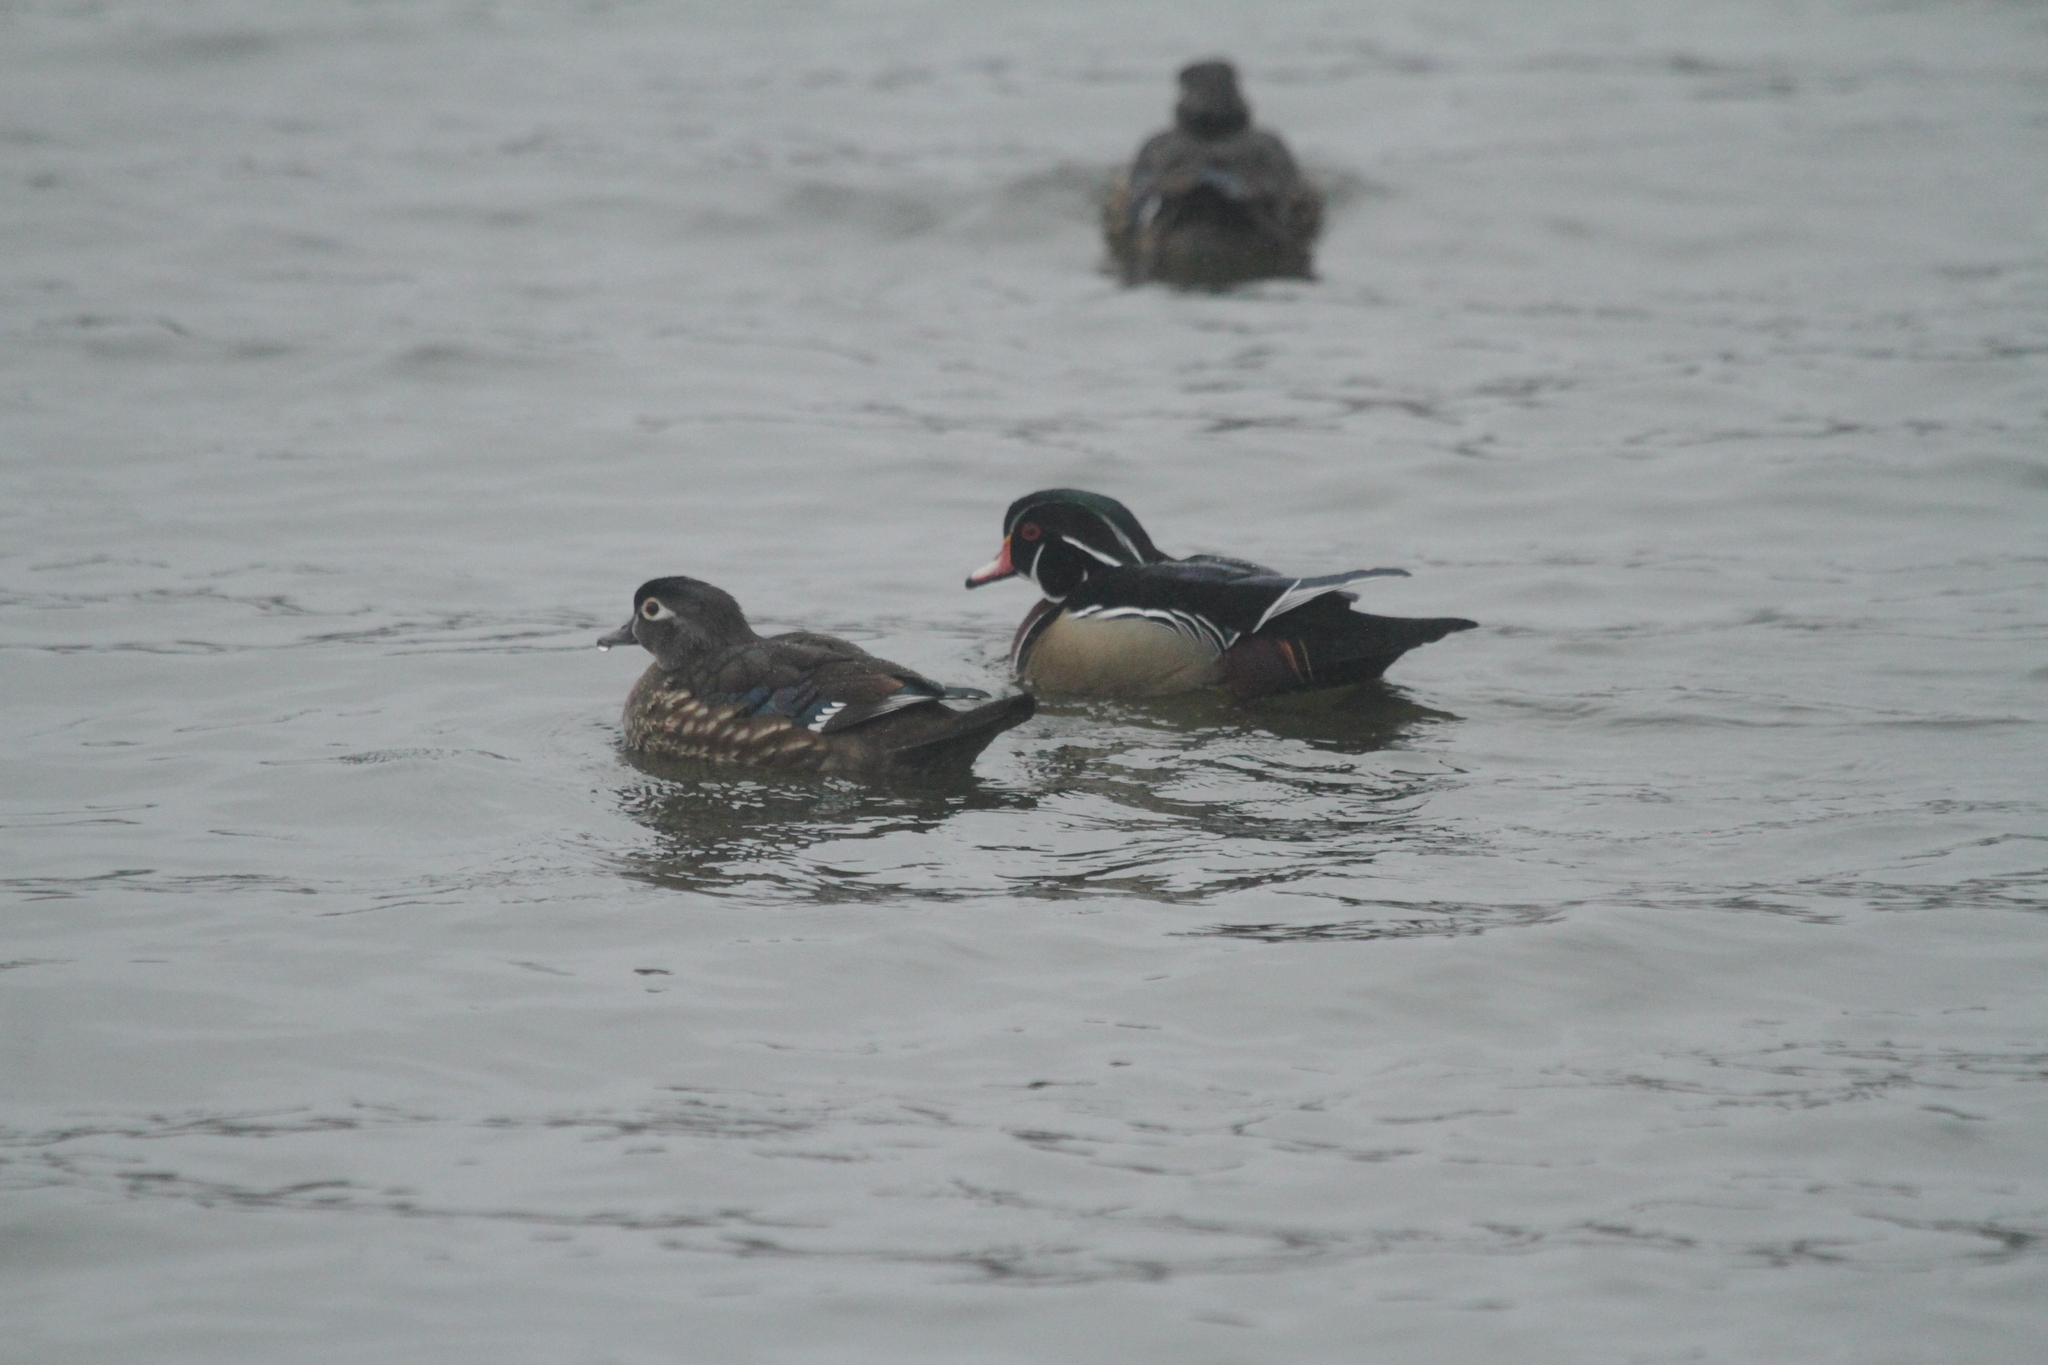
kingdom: Animalia
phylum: Chordata
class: Aves
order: Anseriformes
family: Anatidae
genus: Aix
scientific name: Aix sponsa
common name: Wood duck
